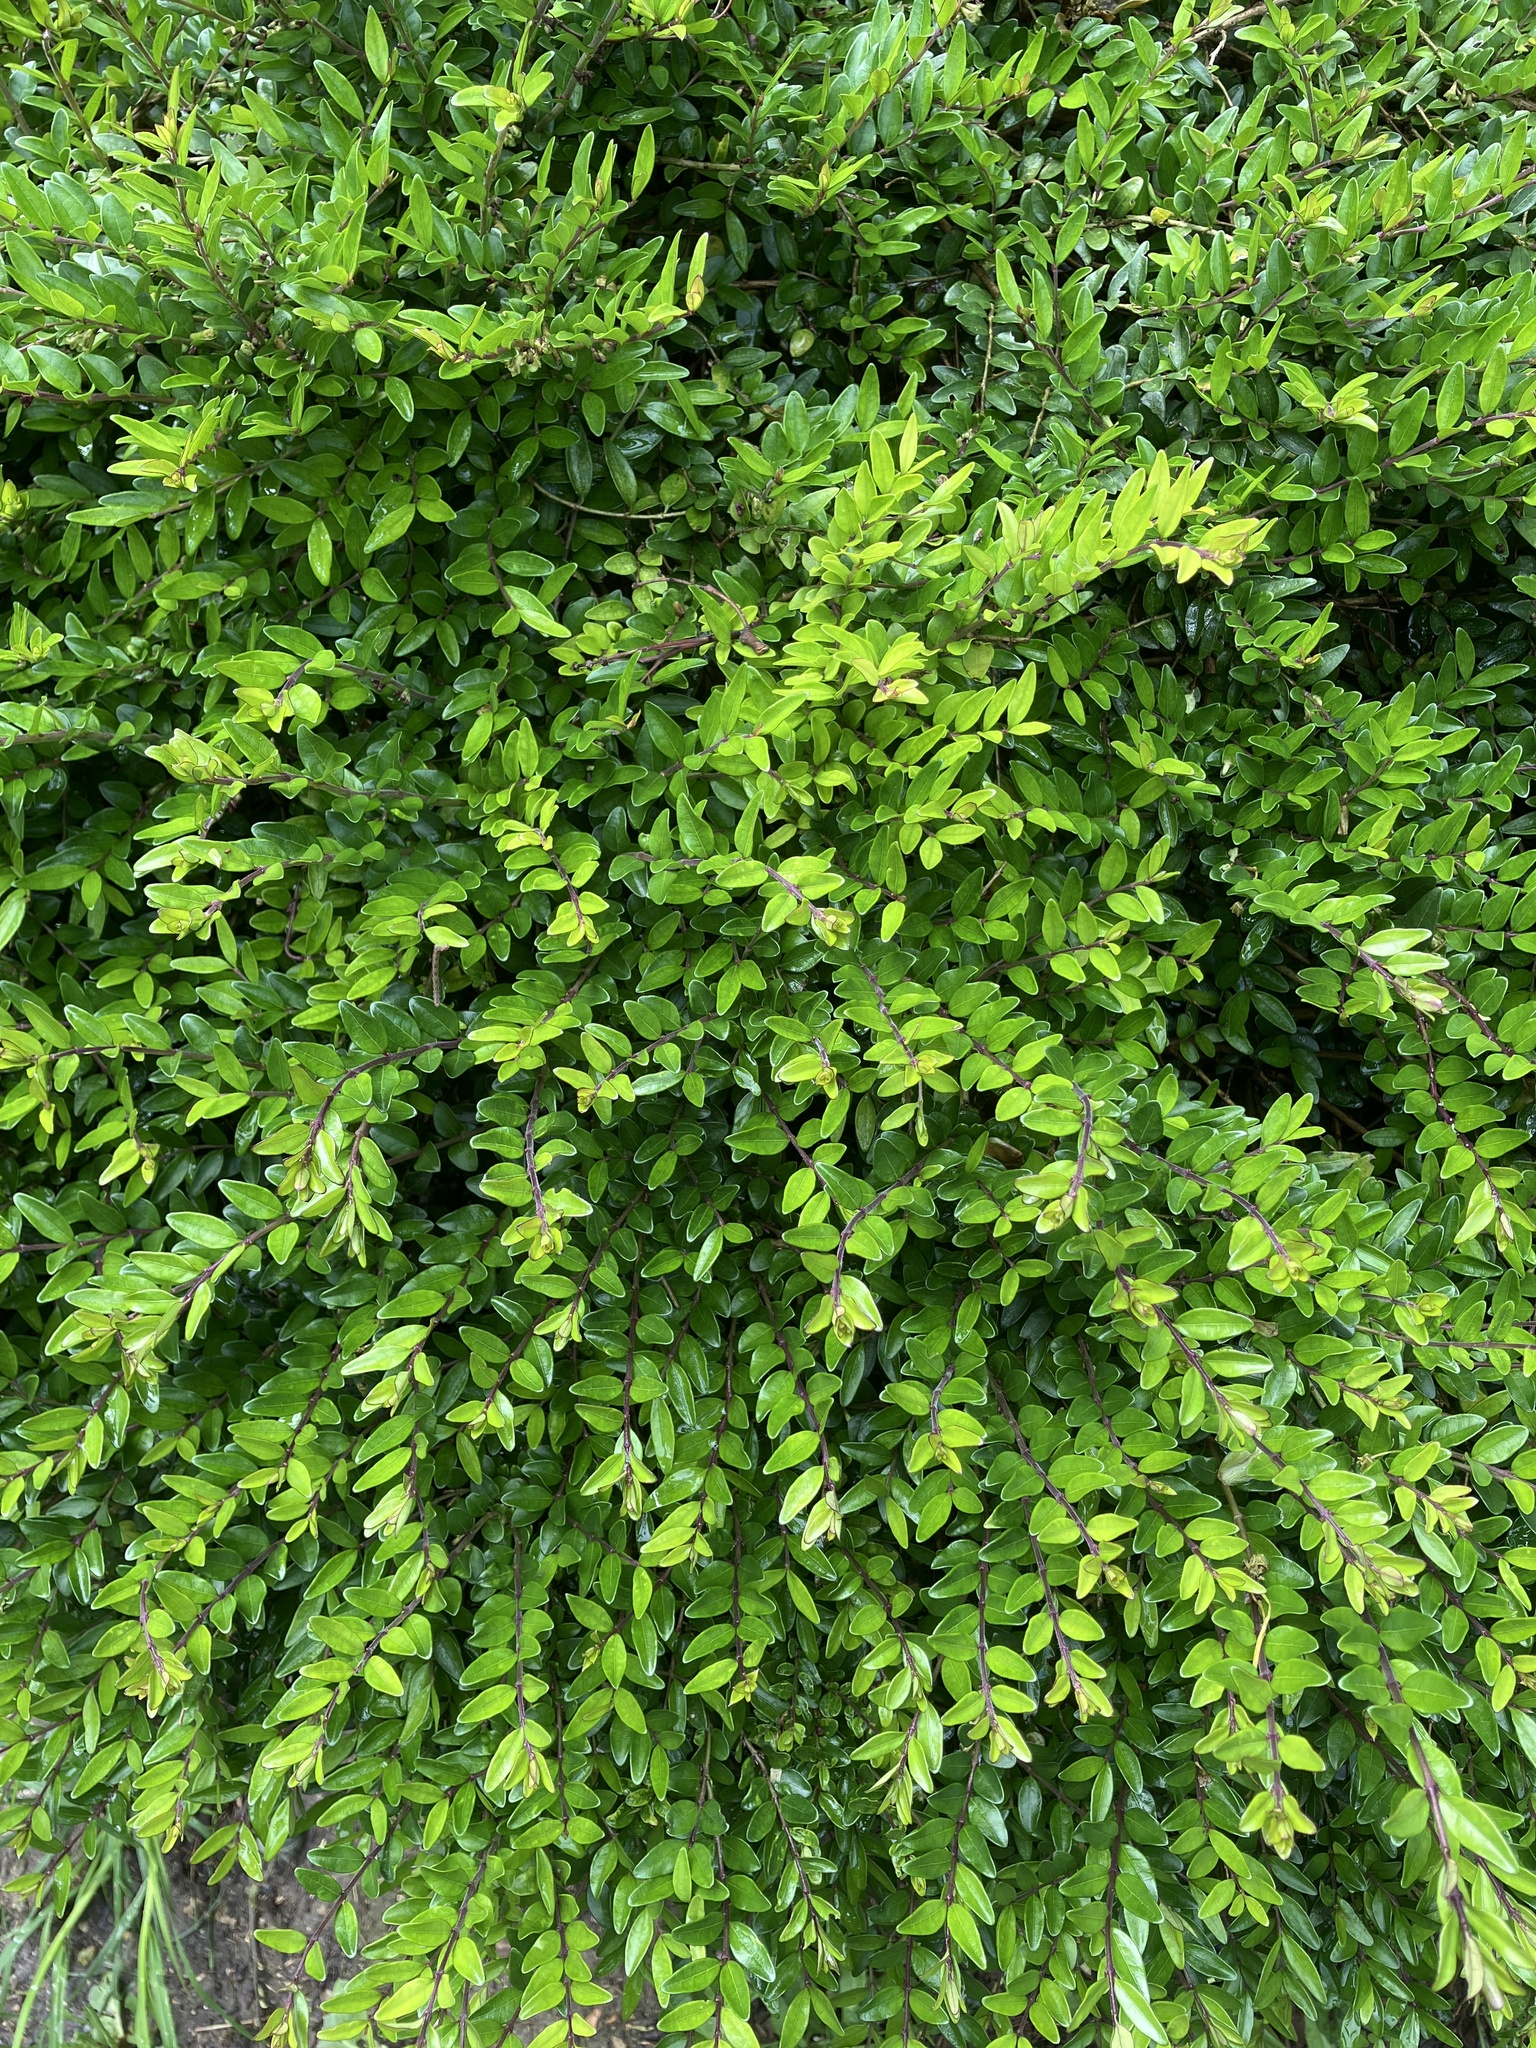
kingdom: Plantae
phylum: Tracheophyta
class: Magnoliopsida
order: Dipsacales
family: Caprifoliaceae
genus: Lonicera
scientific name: Lonicera ligustrina
